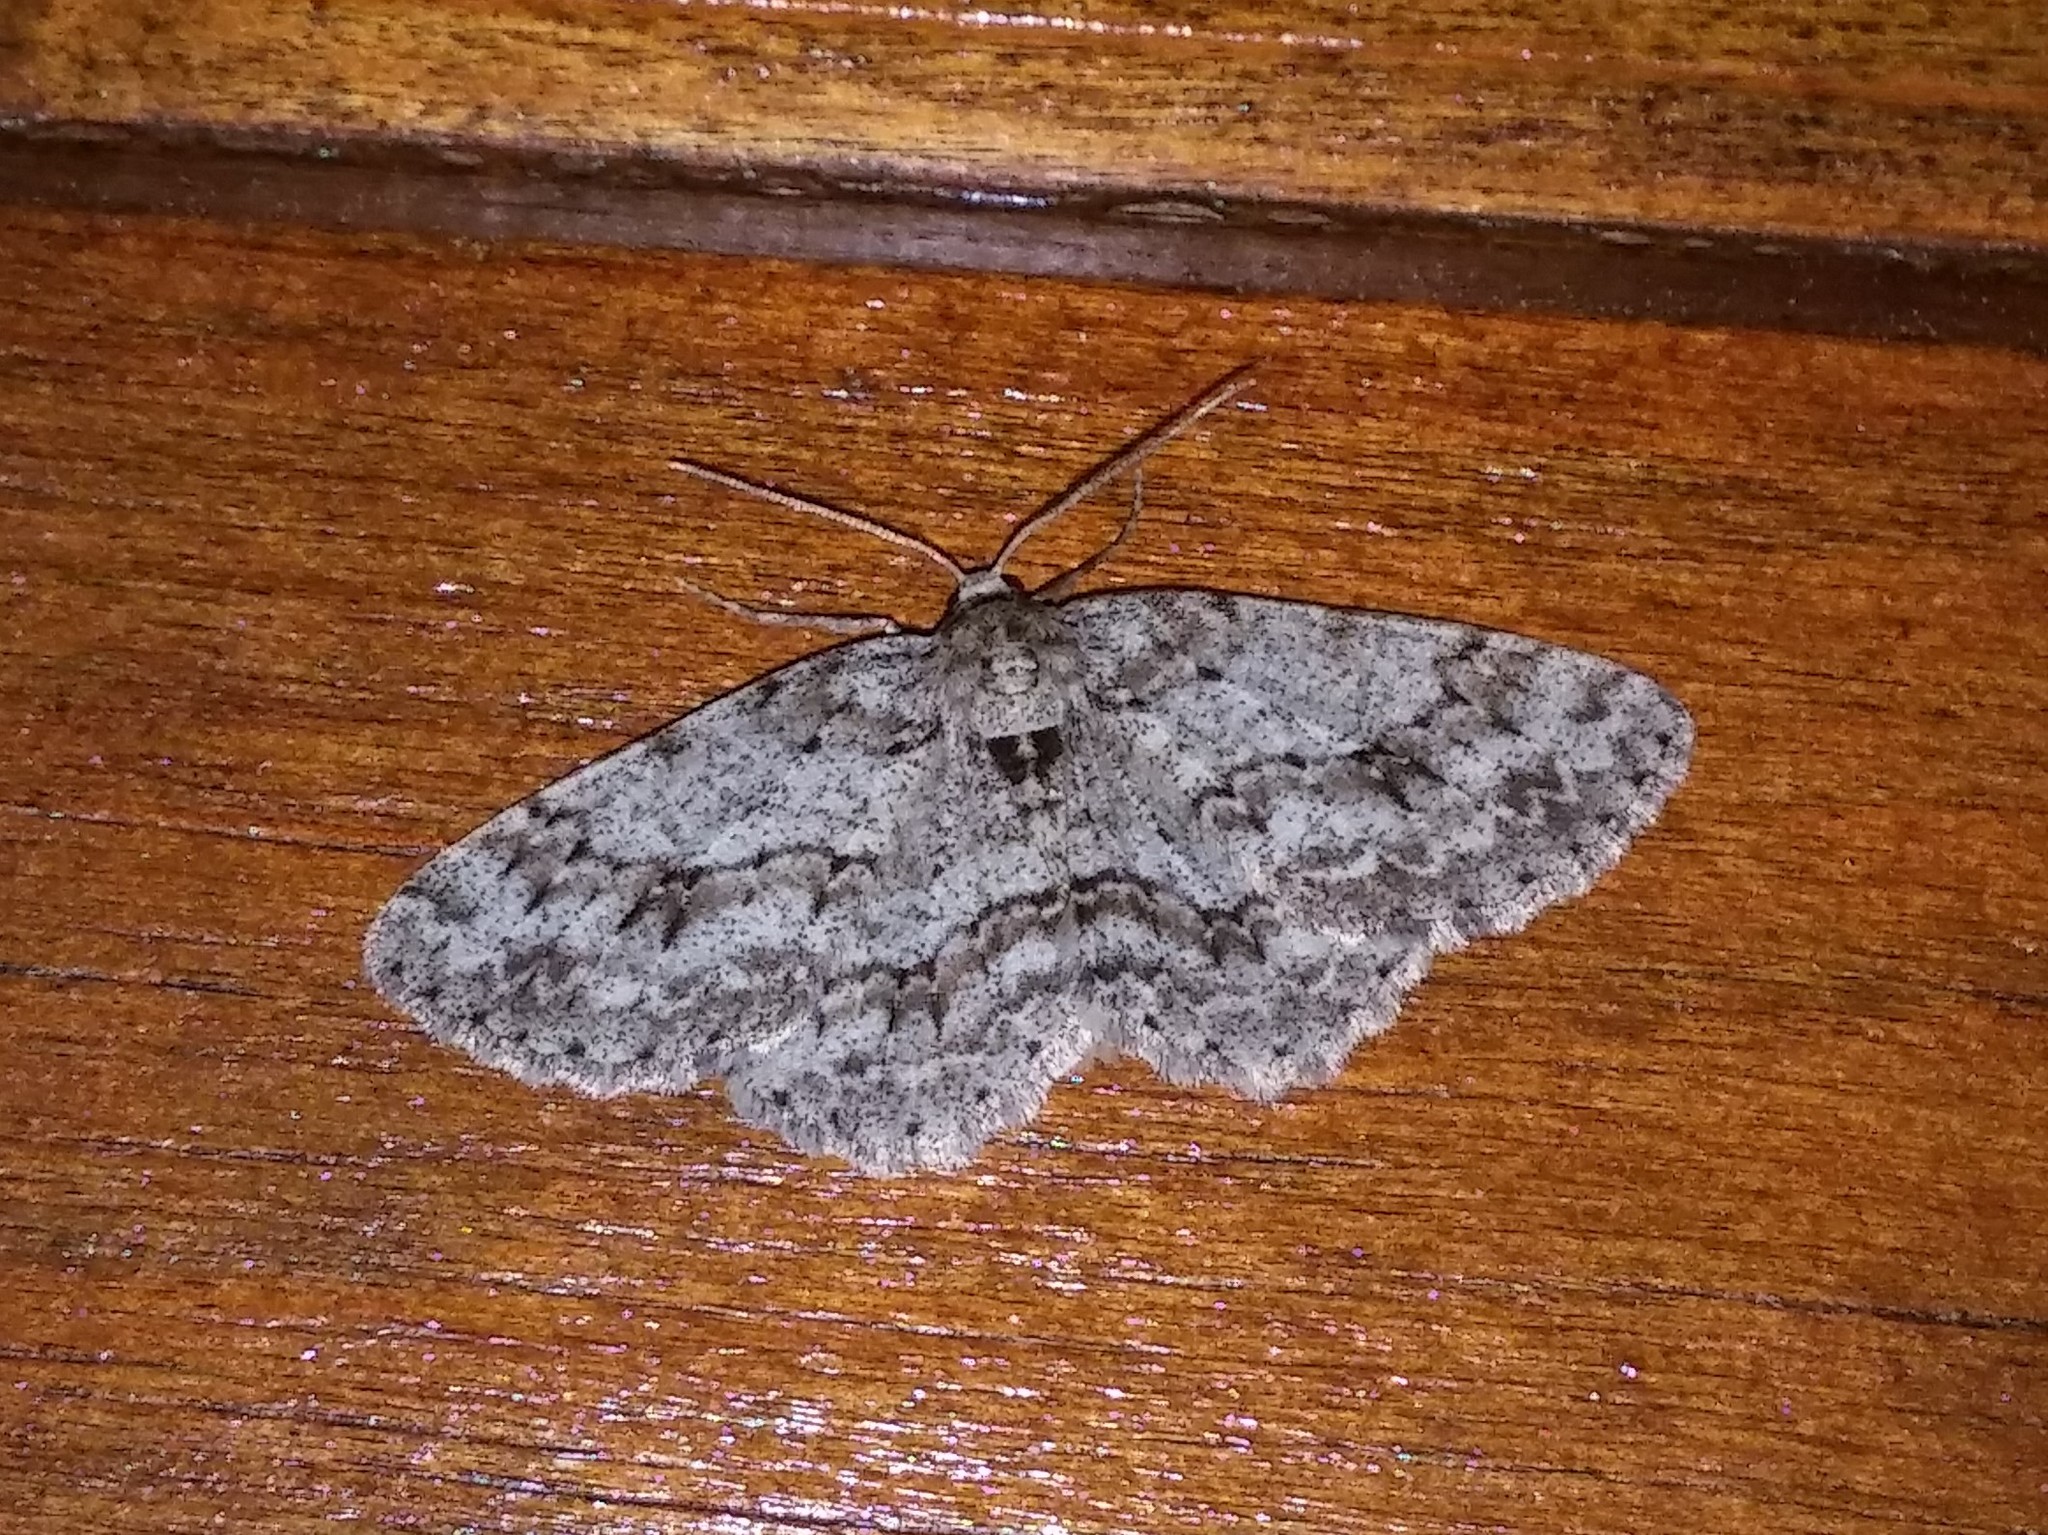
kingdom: Animalia
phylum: Arthropoda
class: Insecta
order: Lepidoptera
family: Geometridae
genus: Ectropis
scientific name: Ectropis crepuscularia
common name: Engrailed
